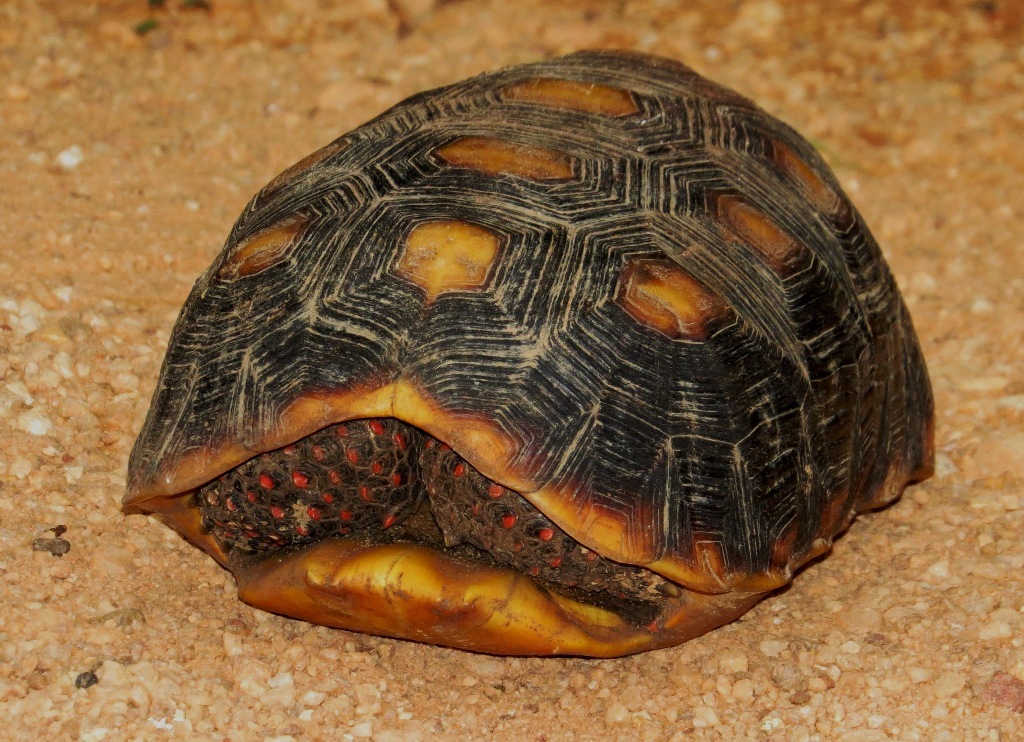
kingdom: Animalia
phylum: Chordata
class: Testudines
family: Testudinidae
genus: Chelonoidis
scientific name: Chelonoidis carbonarius
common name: Red-footed tortoise
